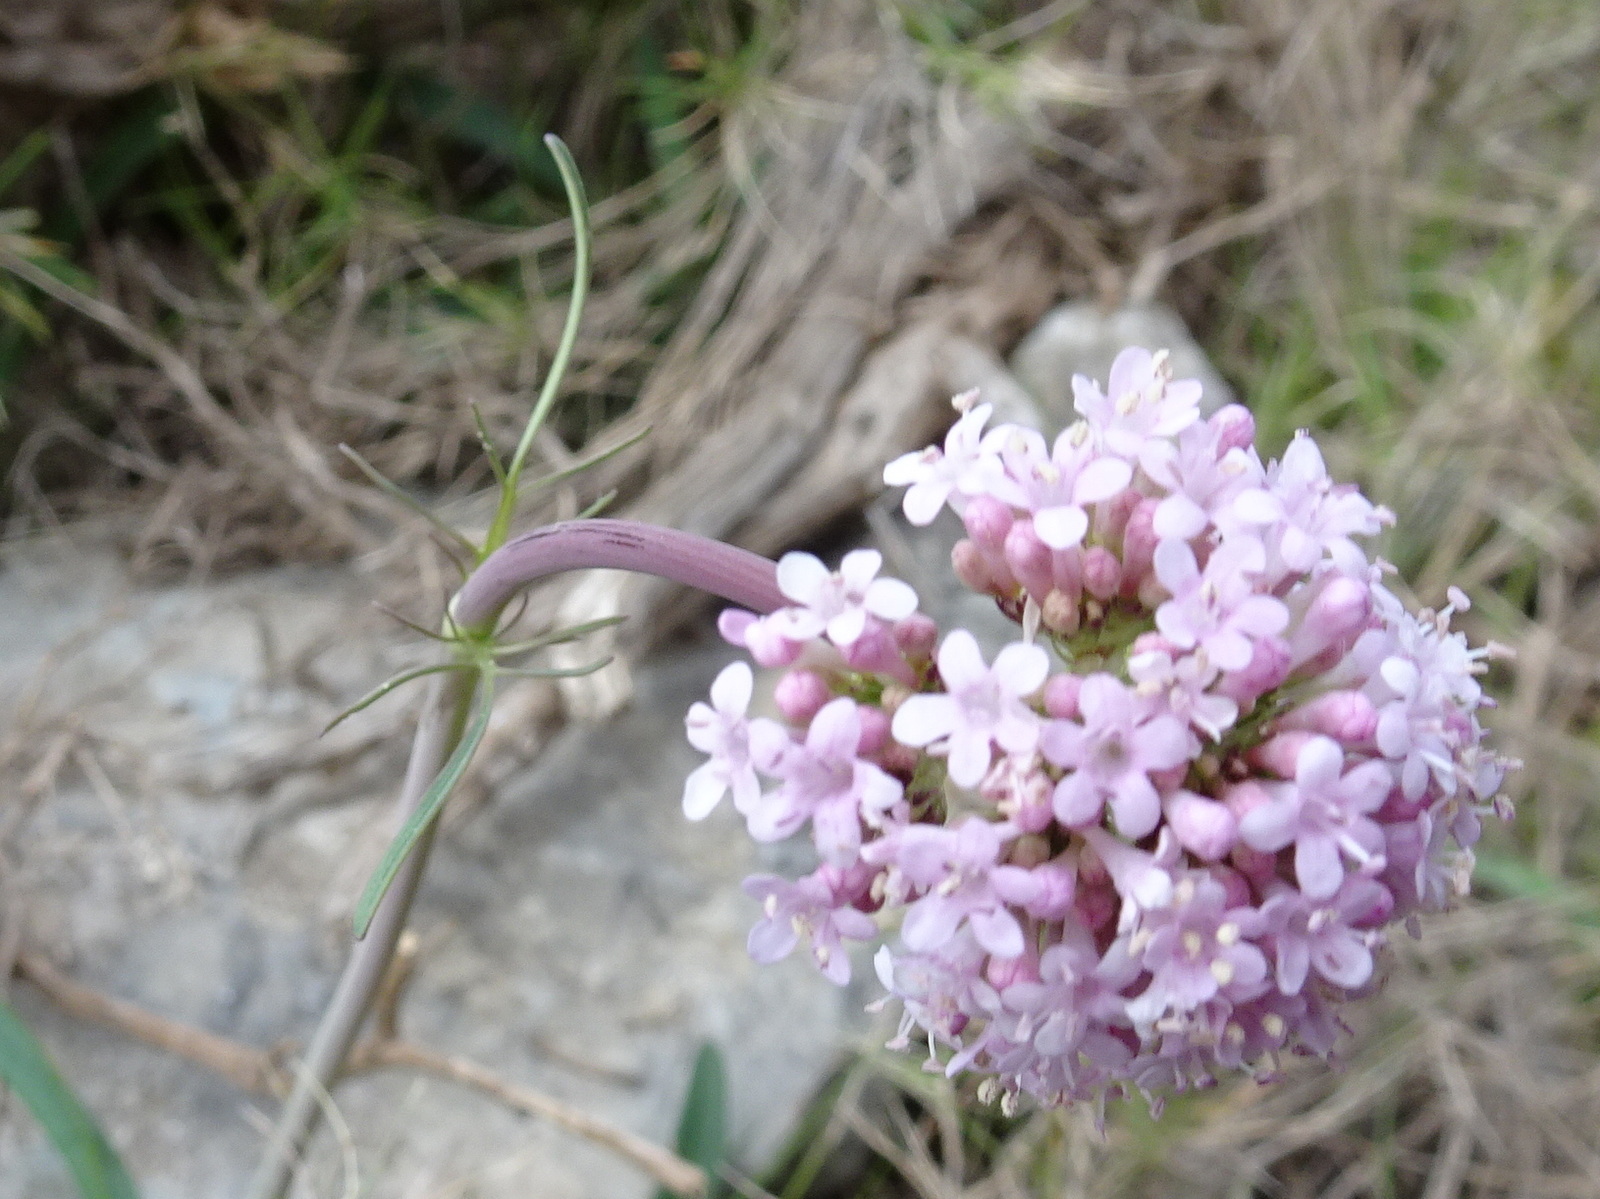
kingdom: Plantae
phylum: Tracheophyta
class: Magnoliopsida
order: Dipsacales
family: Caprifoliaceae
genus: Valeriana
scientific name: Valeriana tuberosa
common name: Tuberous valerian
